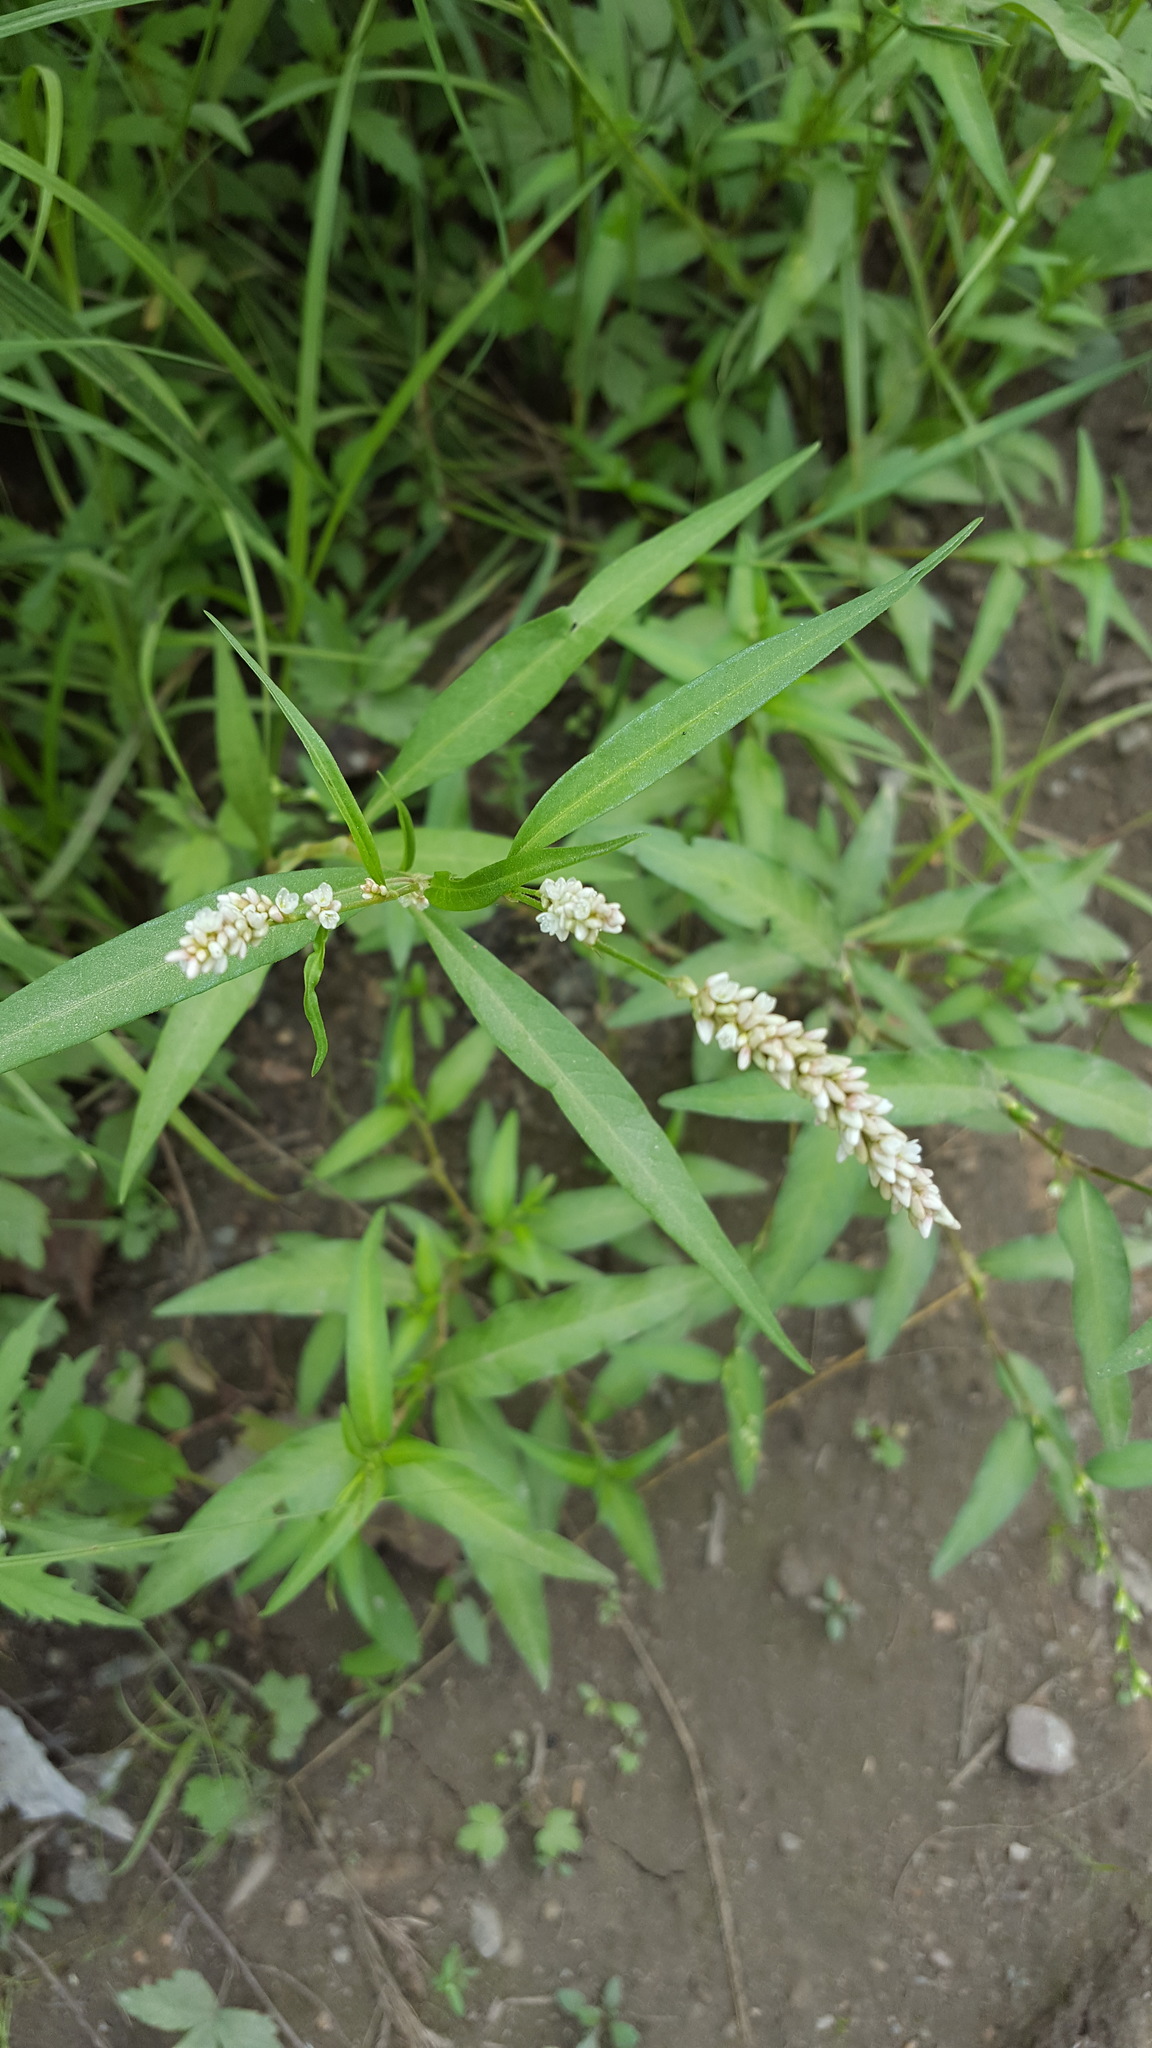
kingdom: Plantae
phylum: Tracheophyta
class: Magnoliopsida
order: Caryophyllales
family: Polygonaceae
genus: Persicaria
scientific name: Persicaria lapathifolia
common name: Curlytop knotweed
